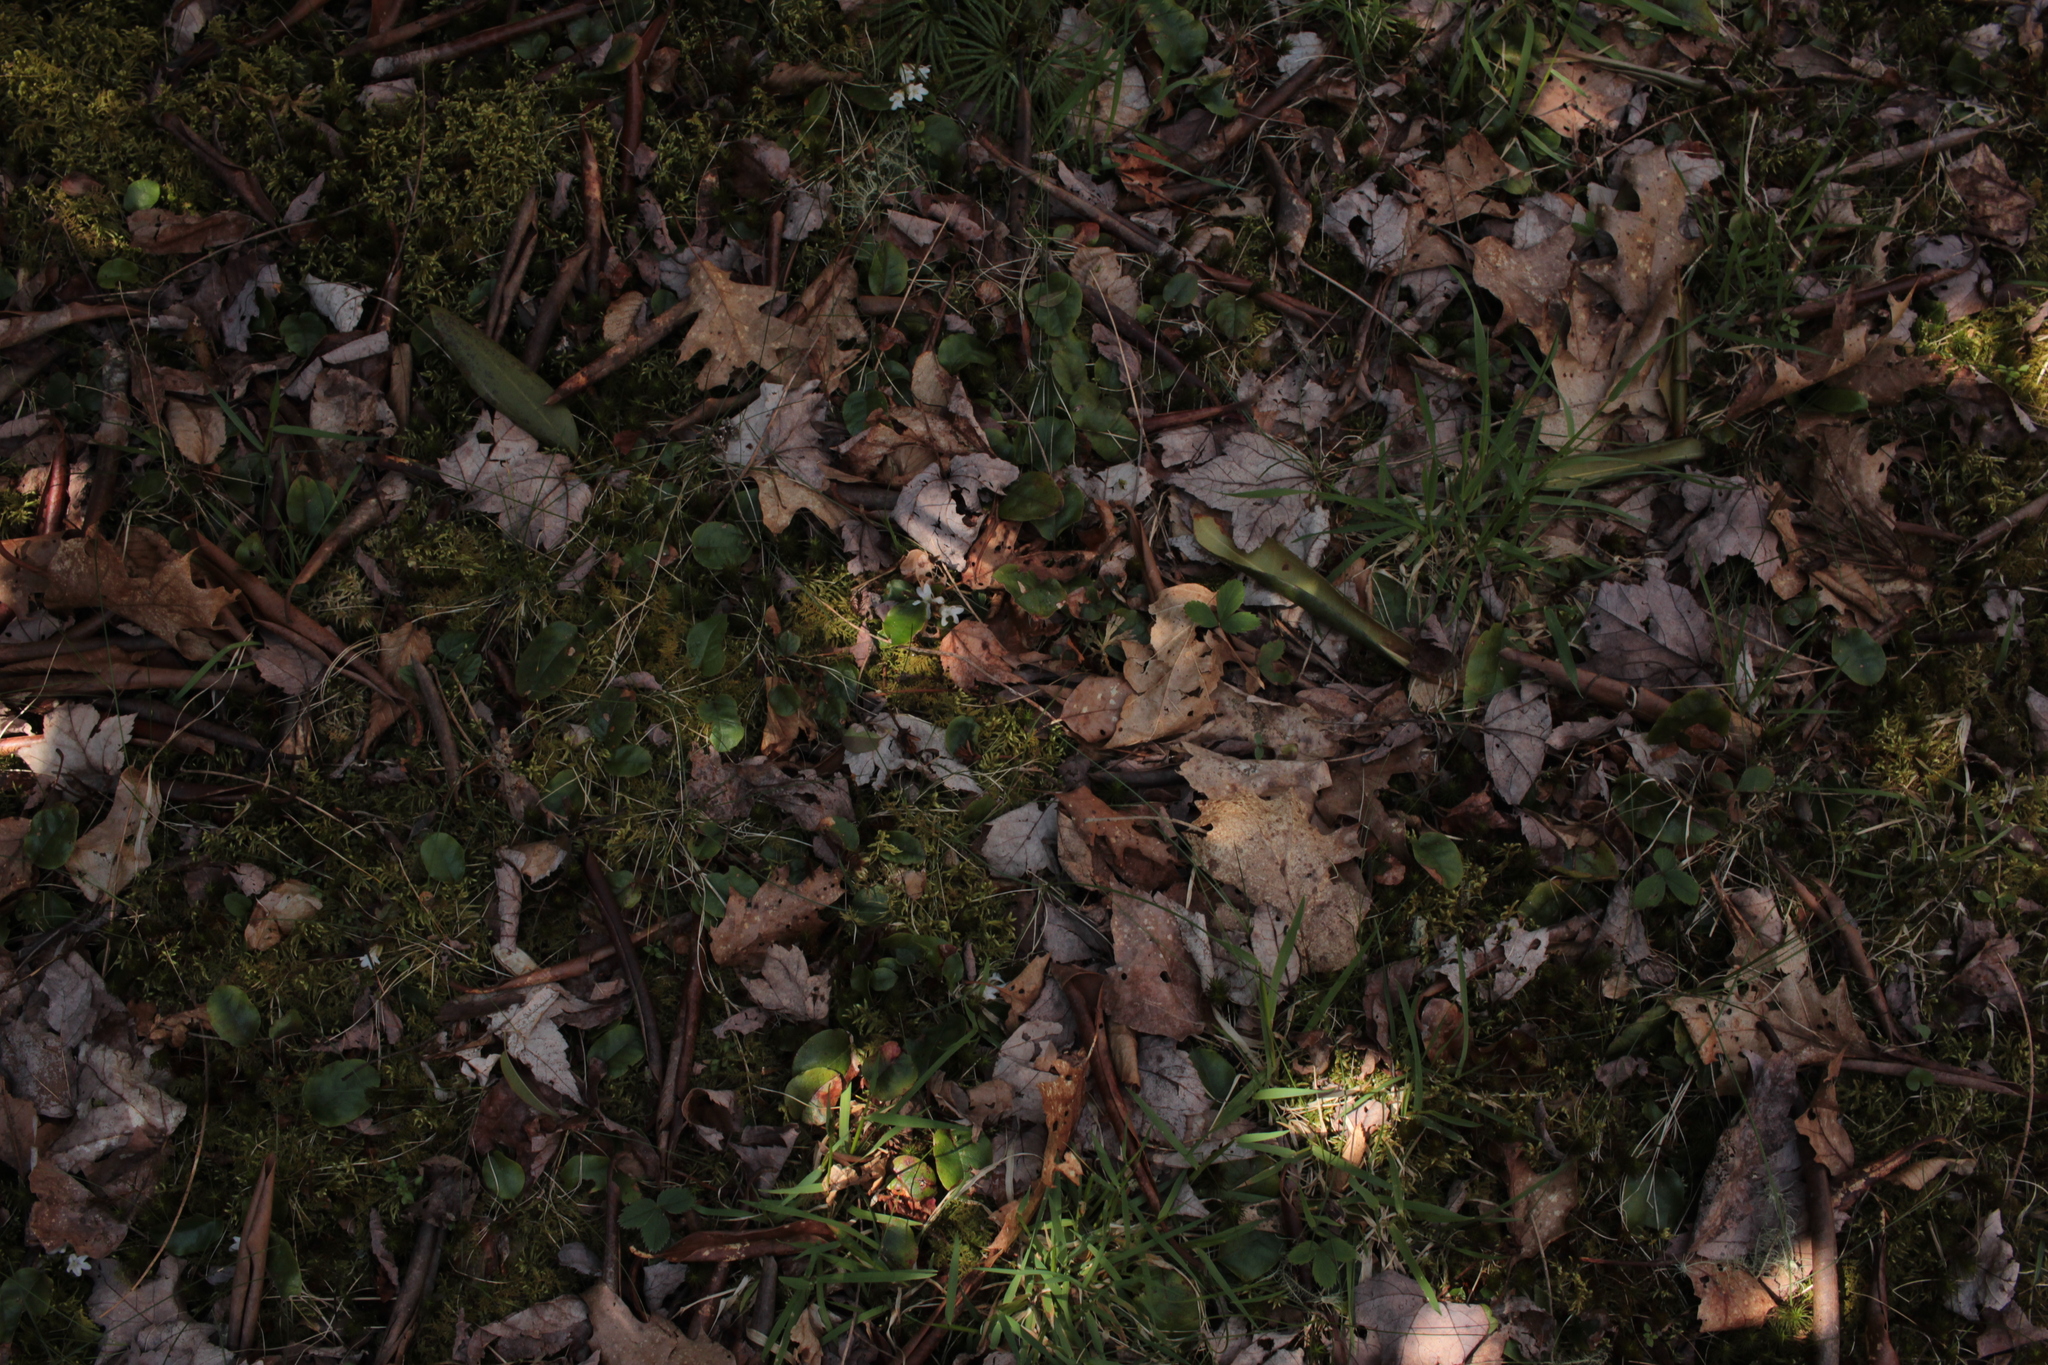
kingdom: Plantae
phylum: Tracheophyta
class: Magnoliopsida
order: Ericales
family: Ericaceae
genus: Epigaea
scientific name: Epigaea repens
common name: Gravelroot
